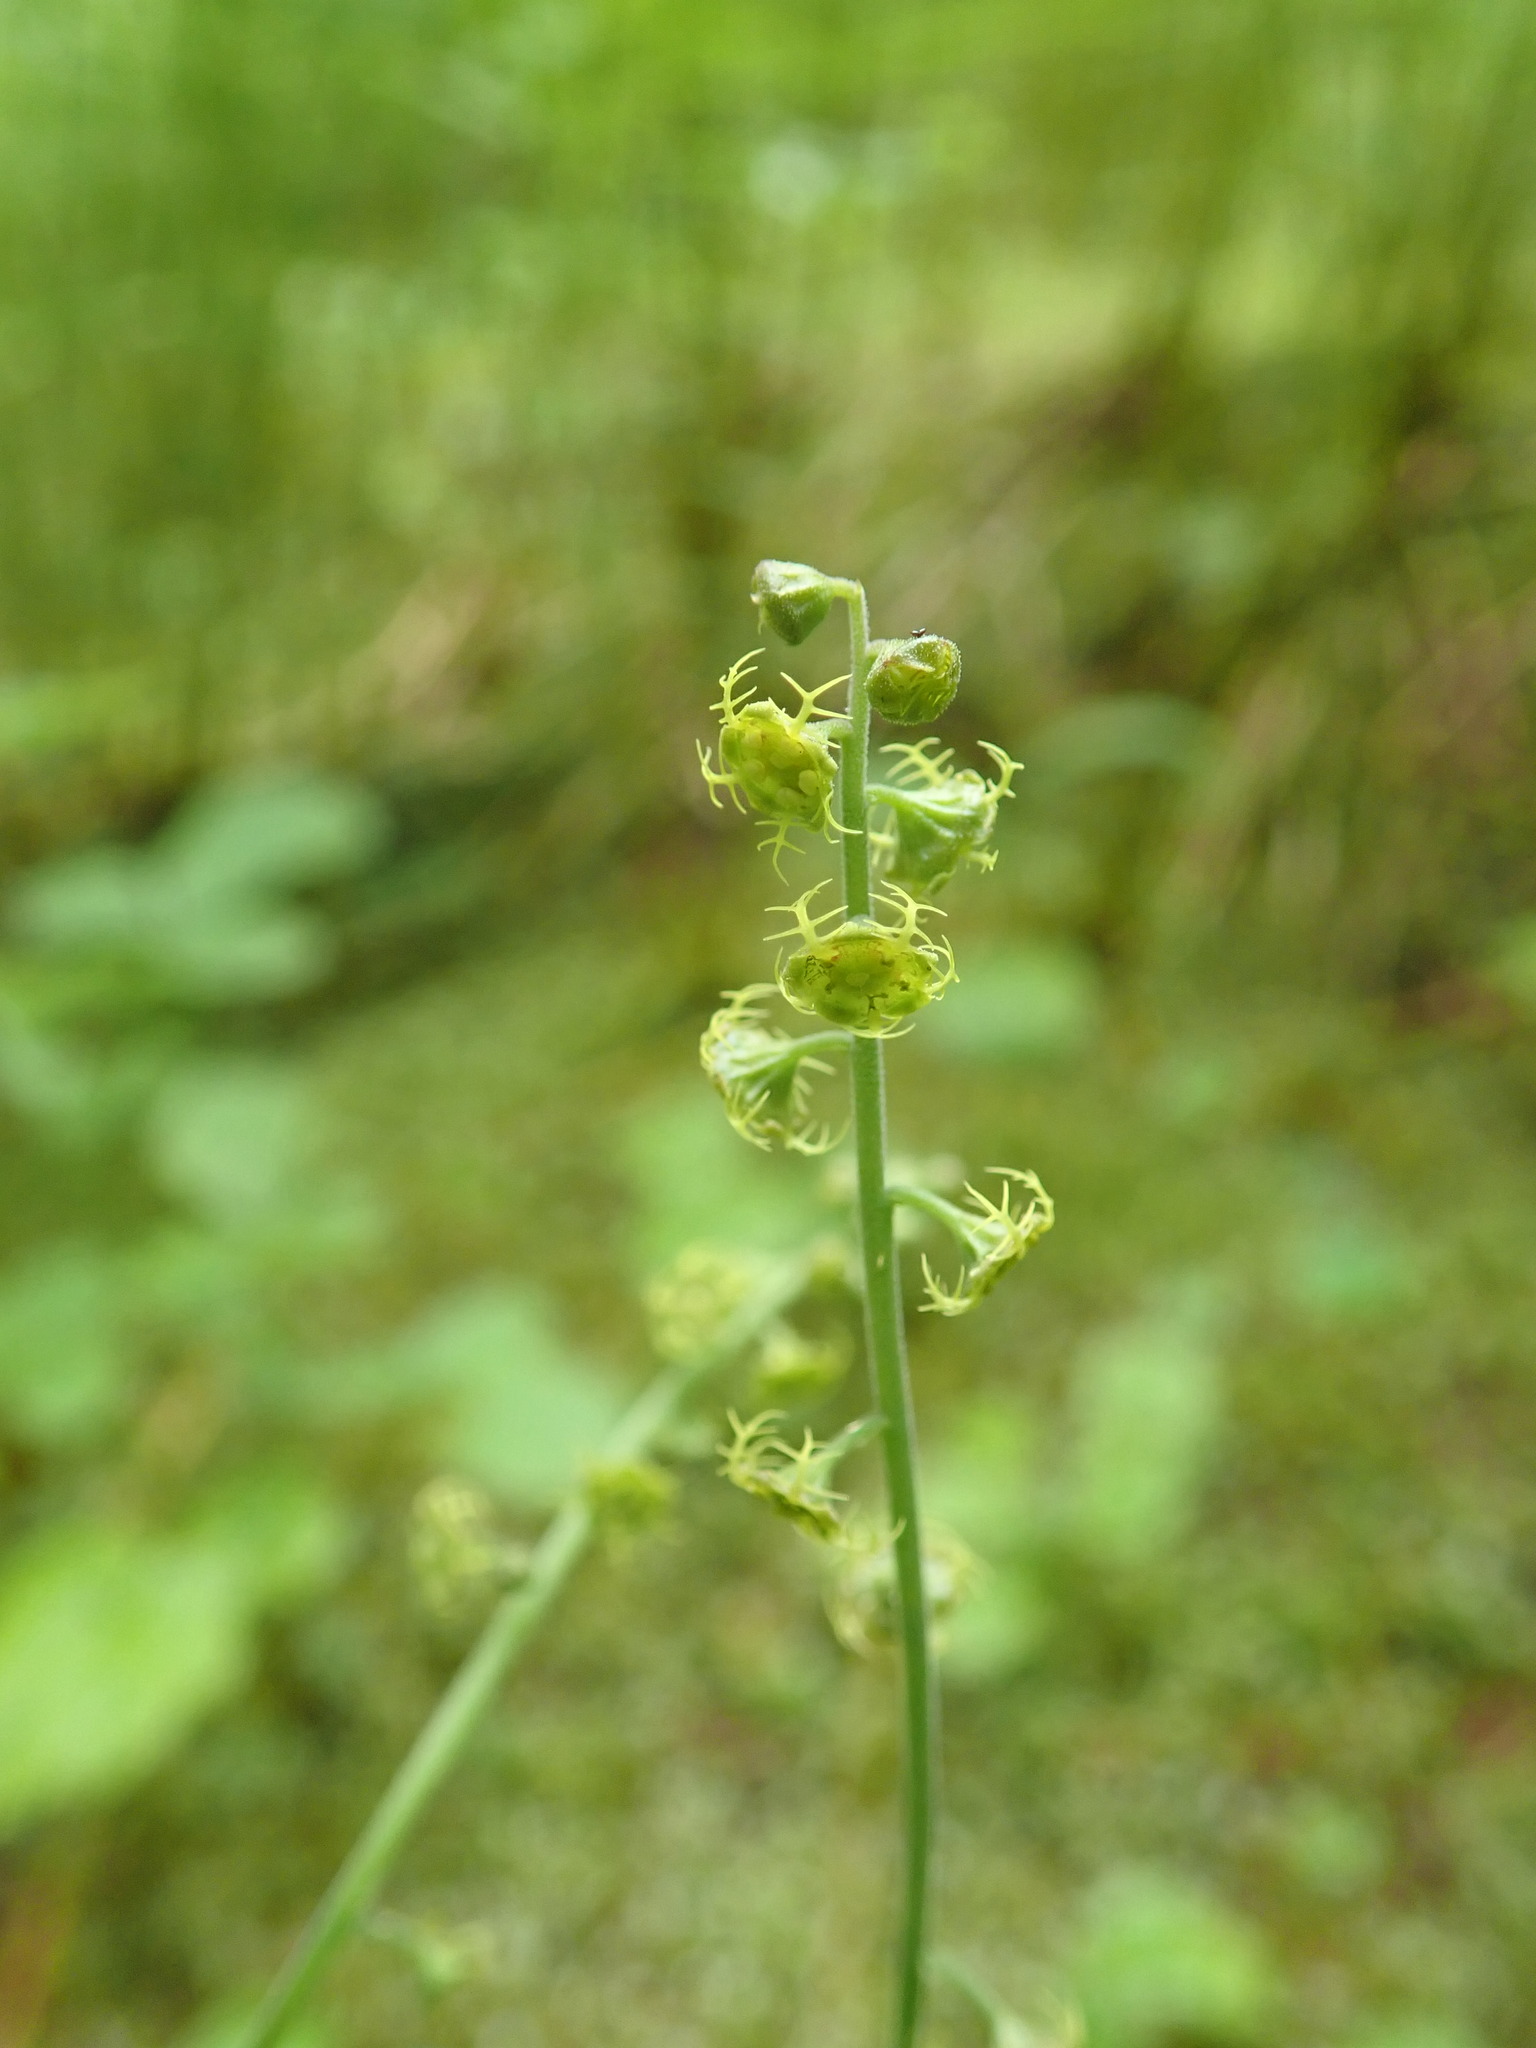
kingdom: Plantae
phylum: Tracheophyta
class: Magnoliopsida
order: Saxifragales
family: Saxifragaceae
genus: Pectiantia
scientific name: Pectiantia pentandra
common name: Alpine bishop's-cap
